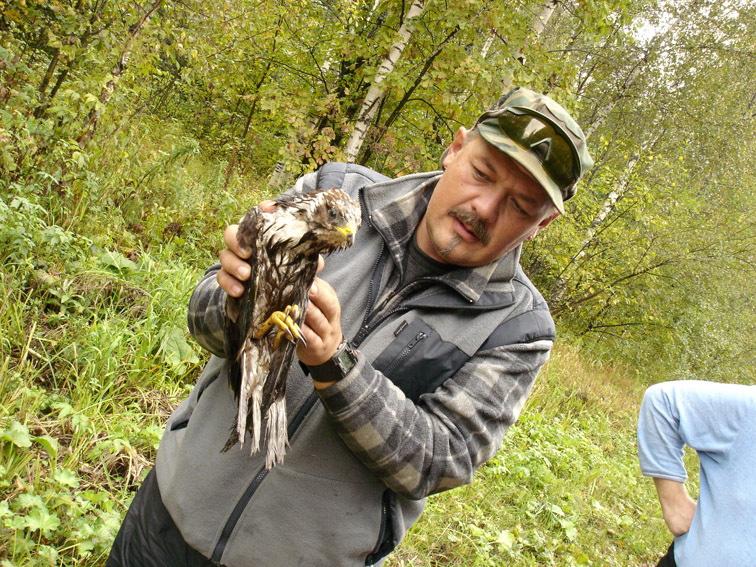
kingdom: Animalia
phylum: Chordata
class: Aves
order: Accipitriformes
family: Accipitridae
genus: Pernis
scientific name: Pernis apivorus
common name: European honey buzzard
